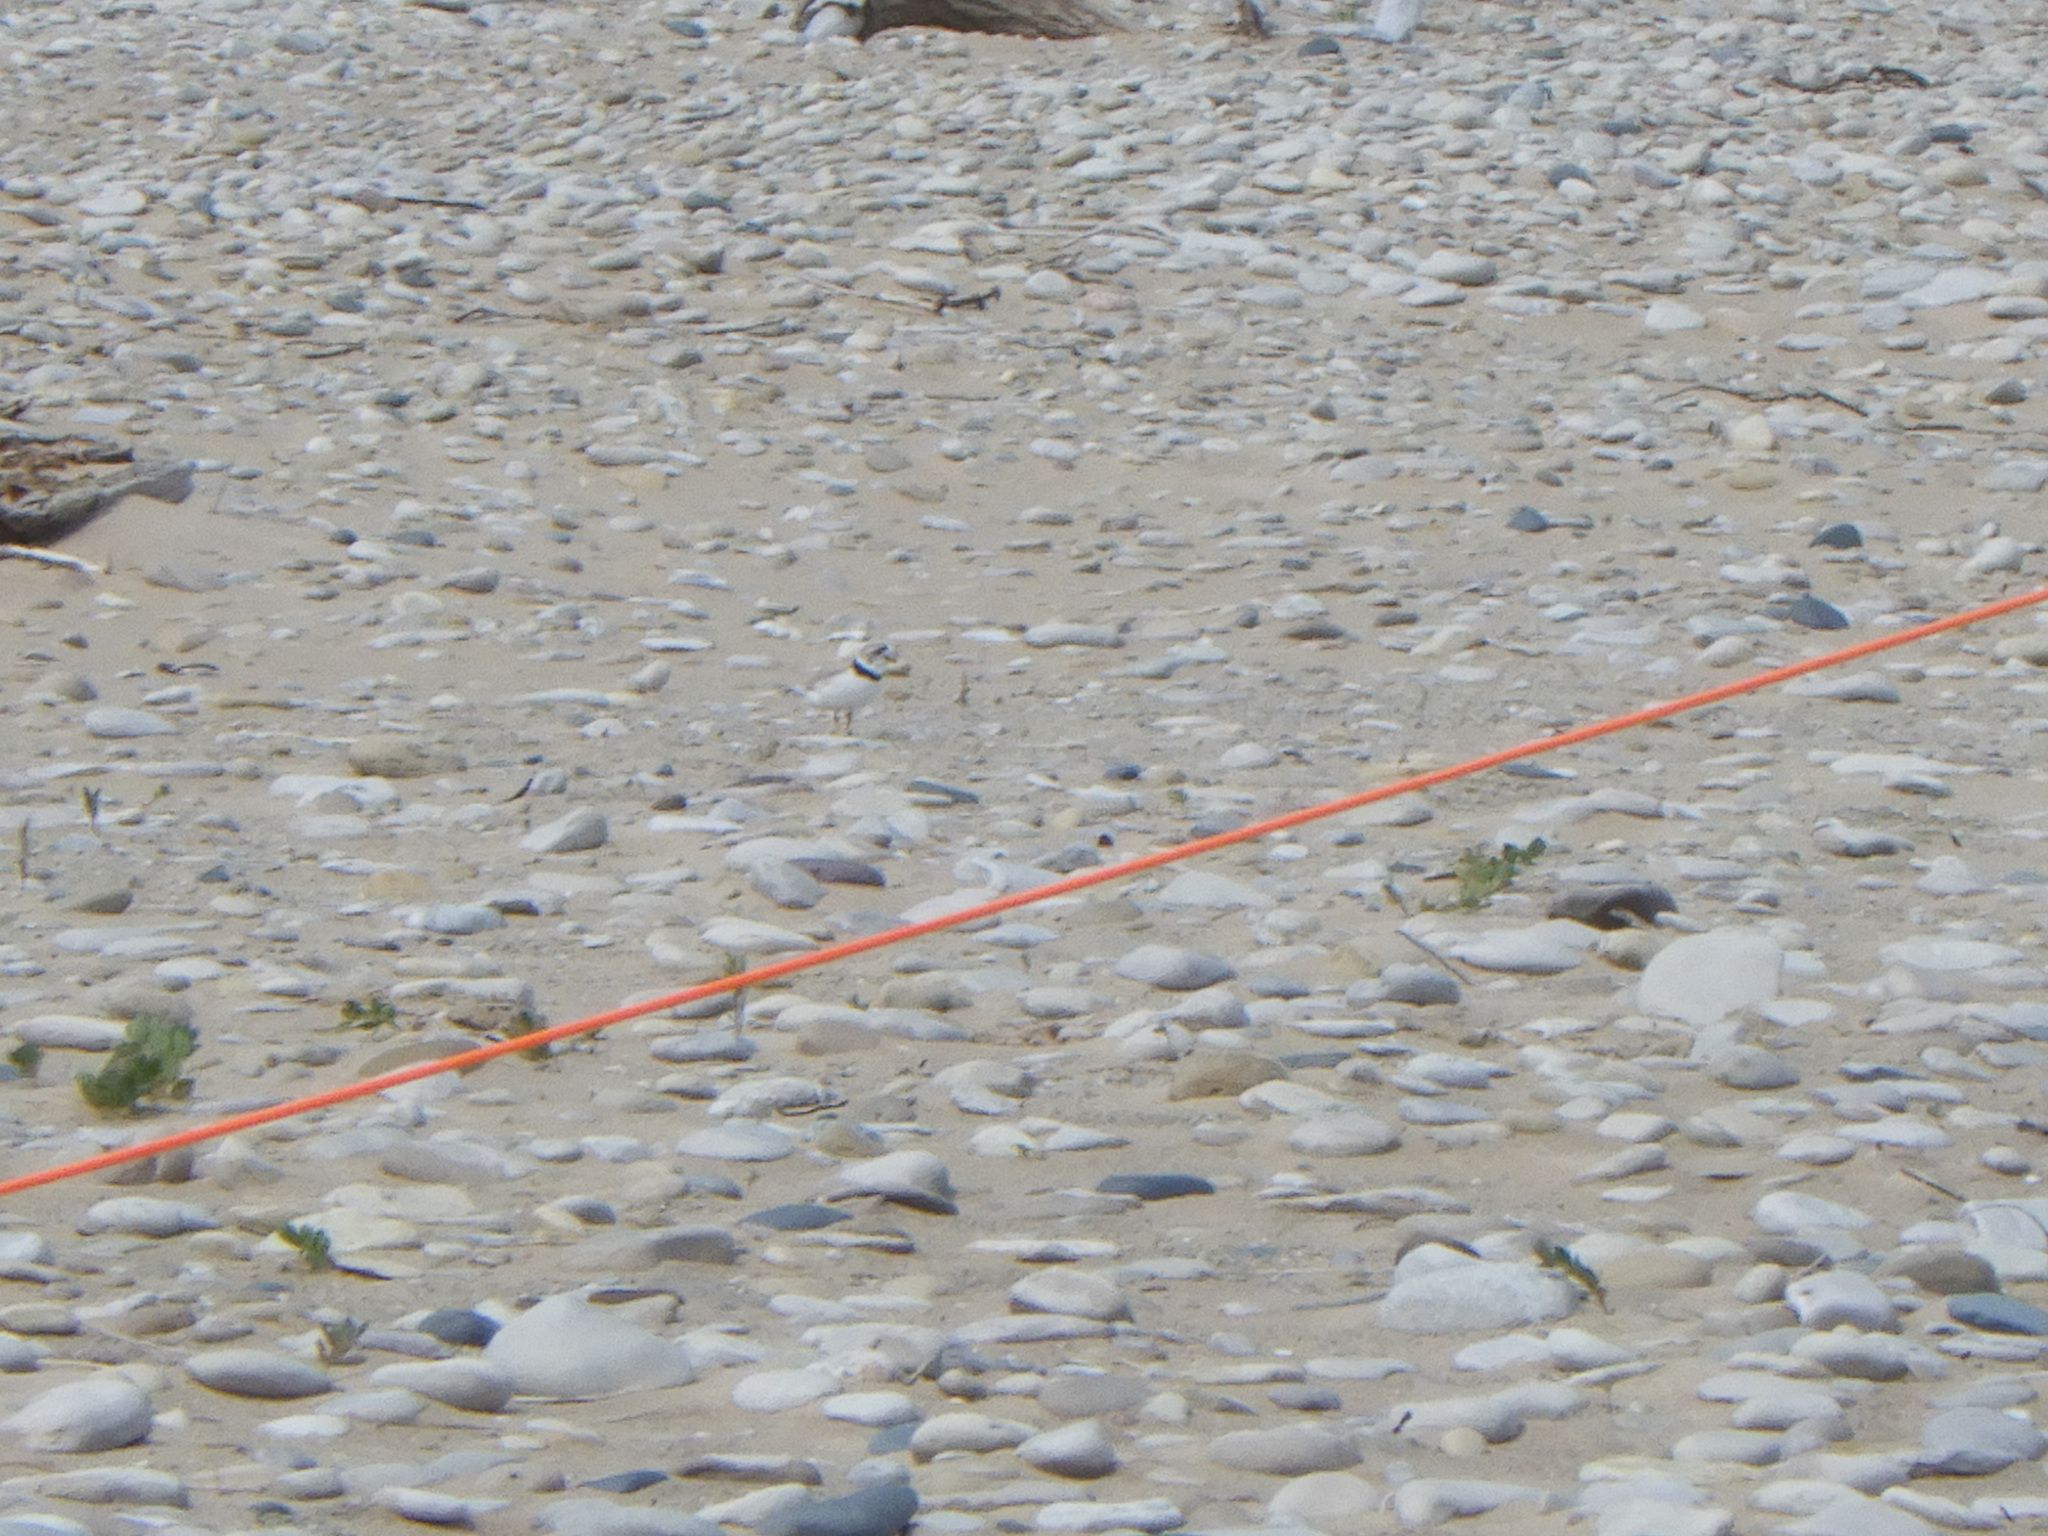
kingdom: Animalia
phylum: Chordata
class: Aves
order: Charadriiformes
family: Charadriidae
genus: Charadrius
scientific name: Charadrius melodus
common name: Piping plover
